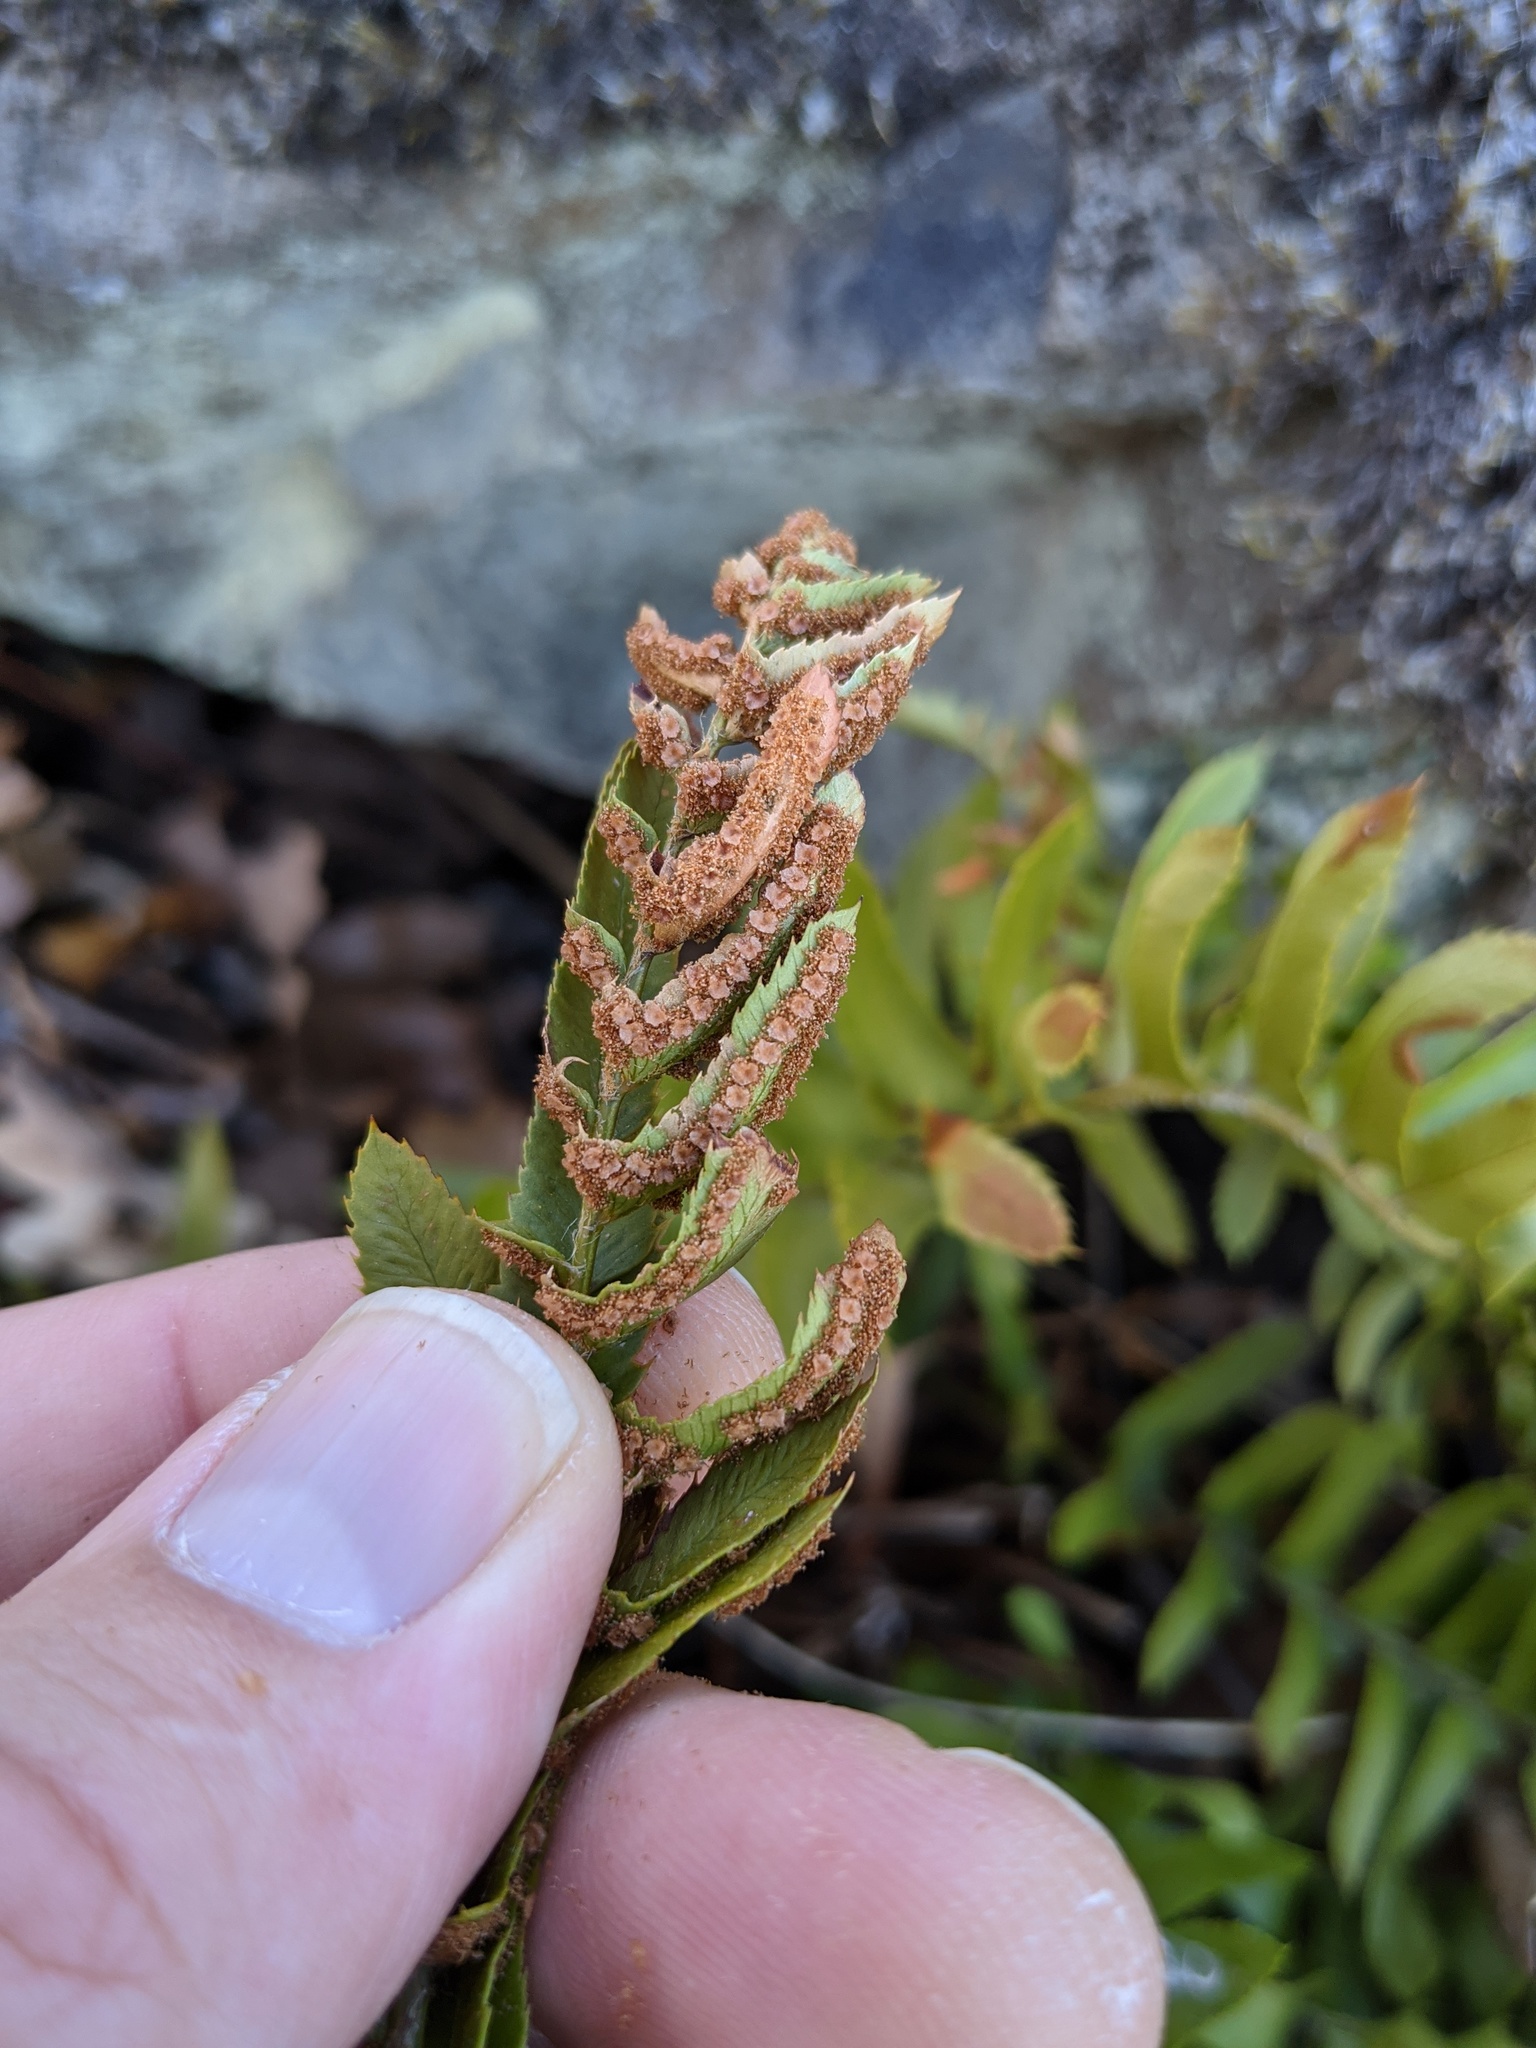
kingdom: Plantae
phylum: Tracheophyta
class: Polypodiopsida
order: Polypodiales
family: Dryopteridaceae
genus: Polystichum
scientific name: Polystichum imbricans
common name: Dwarf western sword fern
